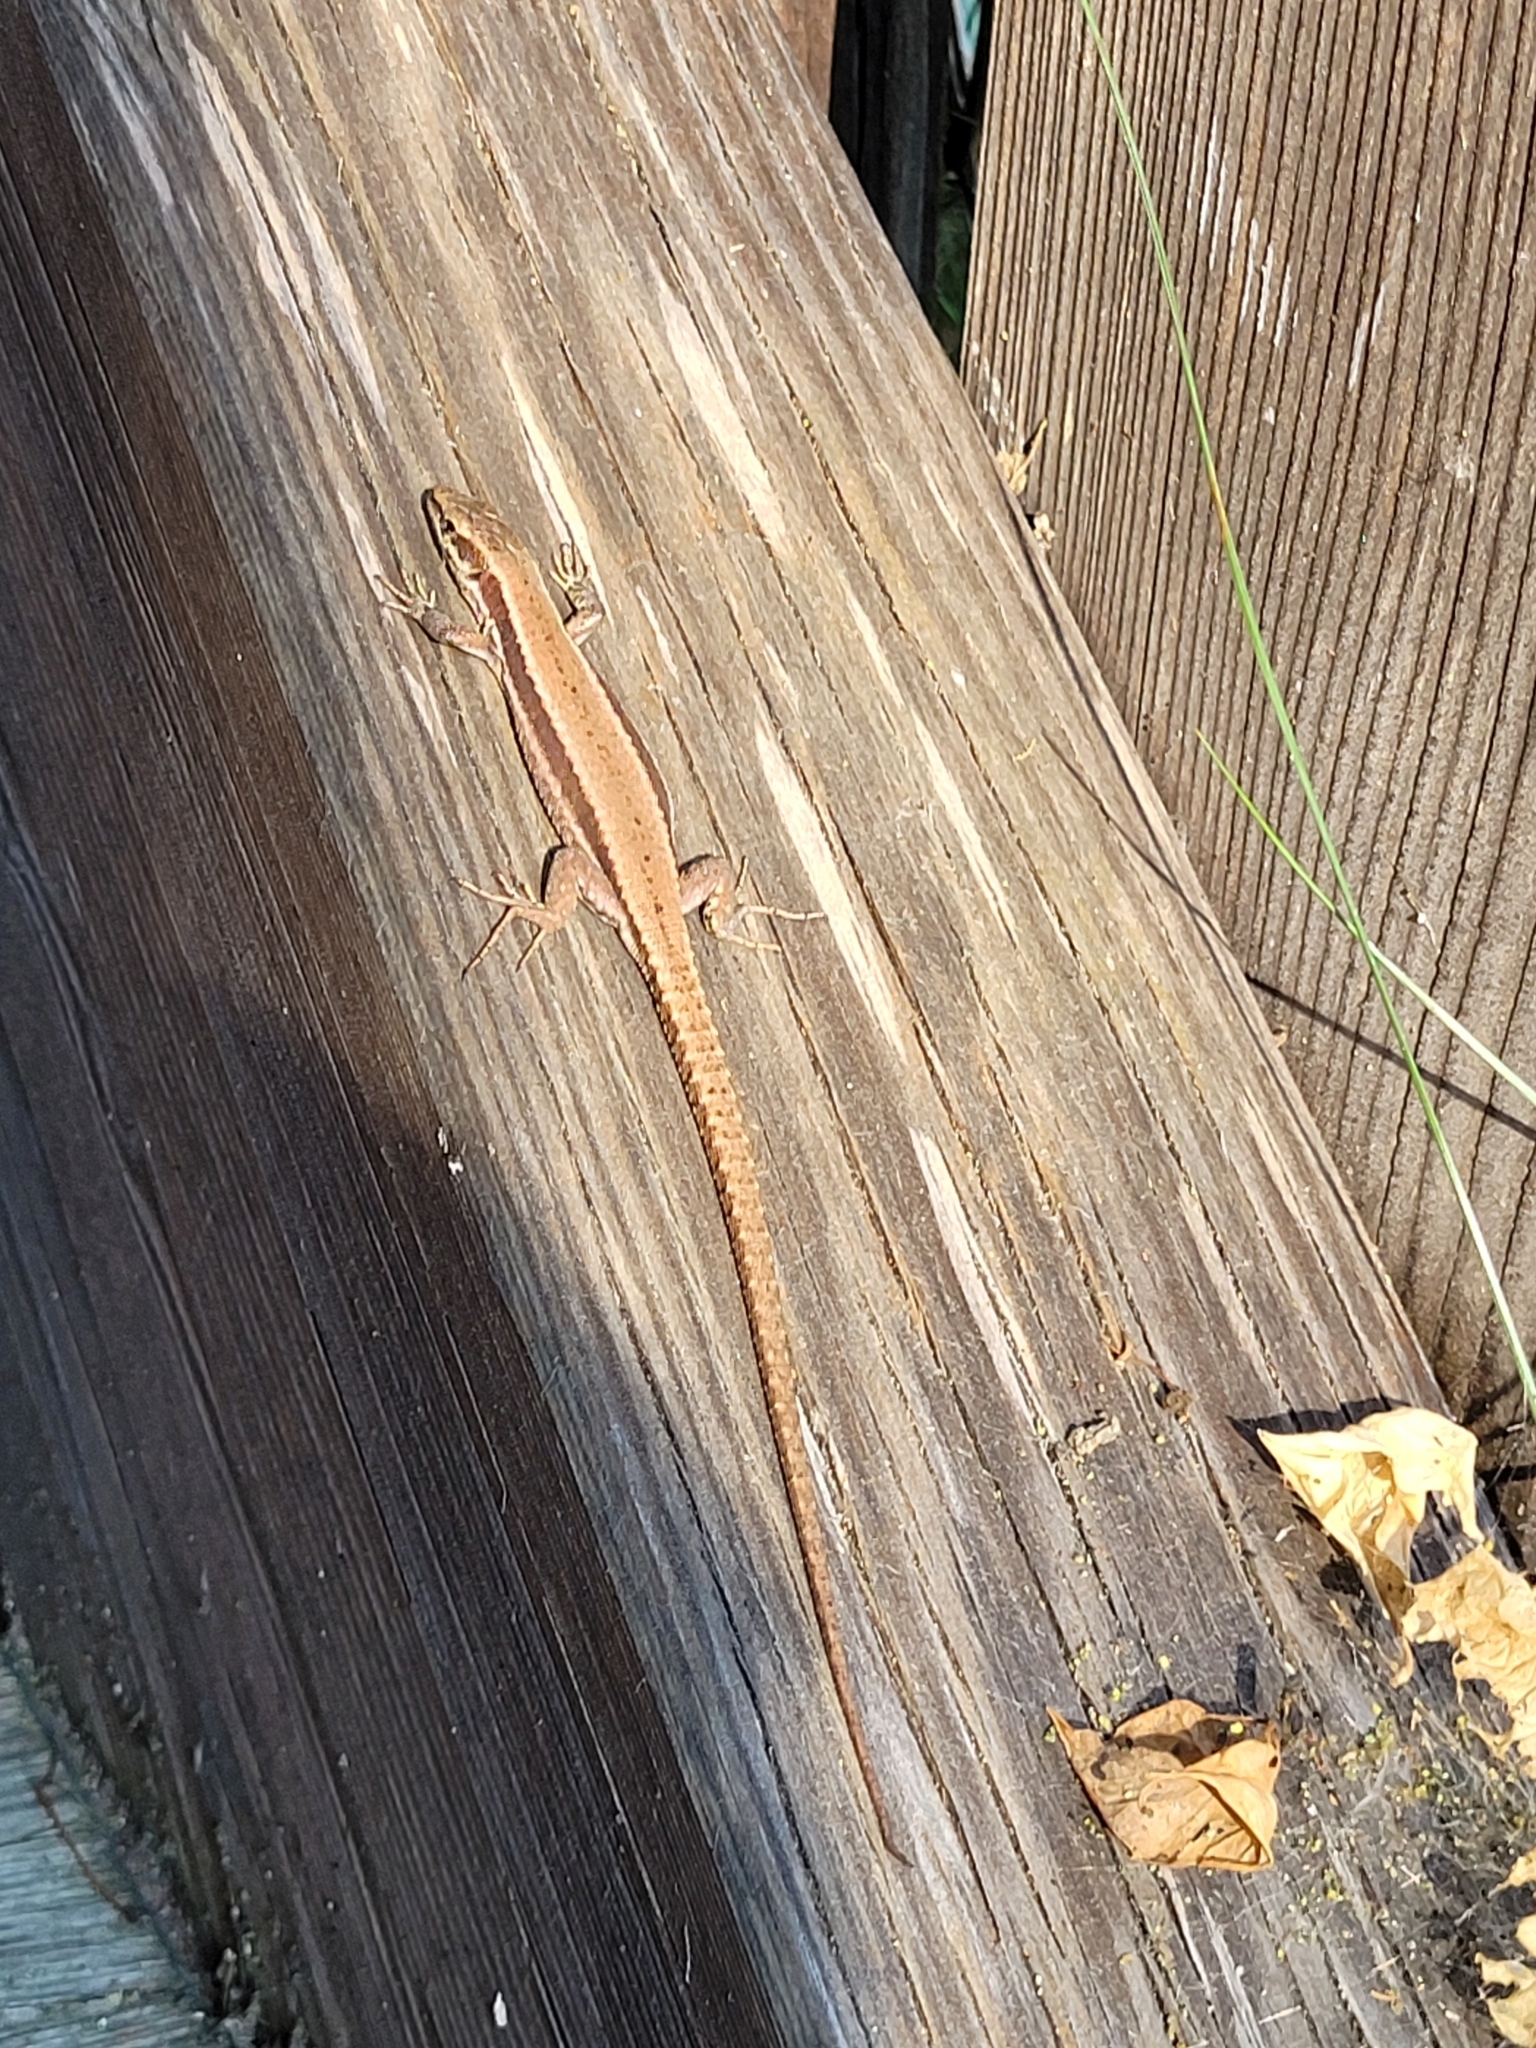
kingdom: Animalia
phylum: Chordata
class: Squamata
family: Lacertidae
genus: Podarcis
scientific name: Podarcis muralis
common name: Common wall lizard
